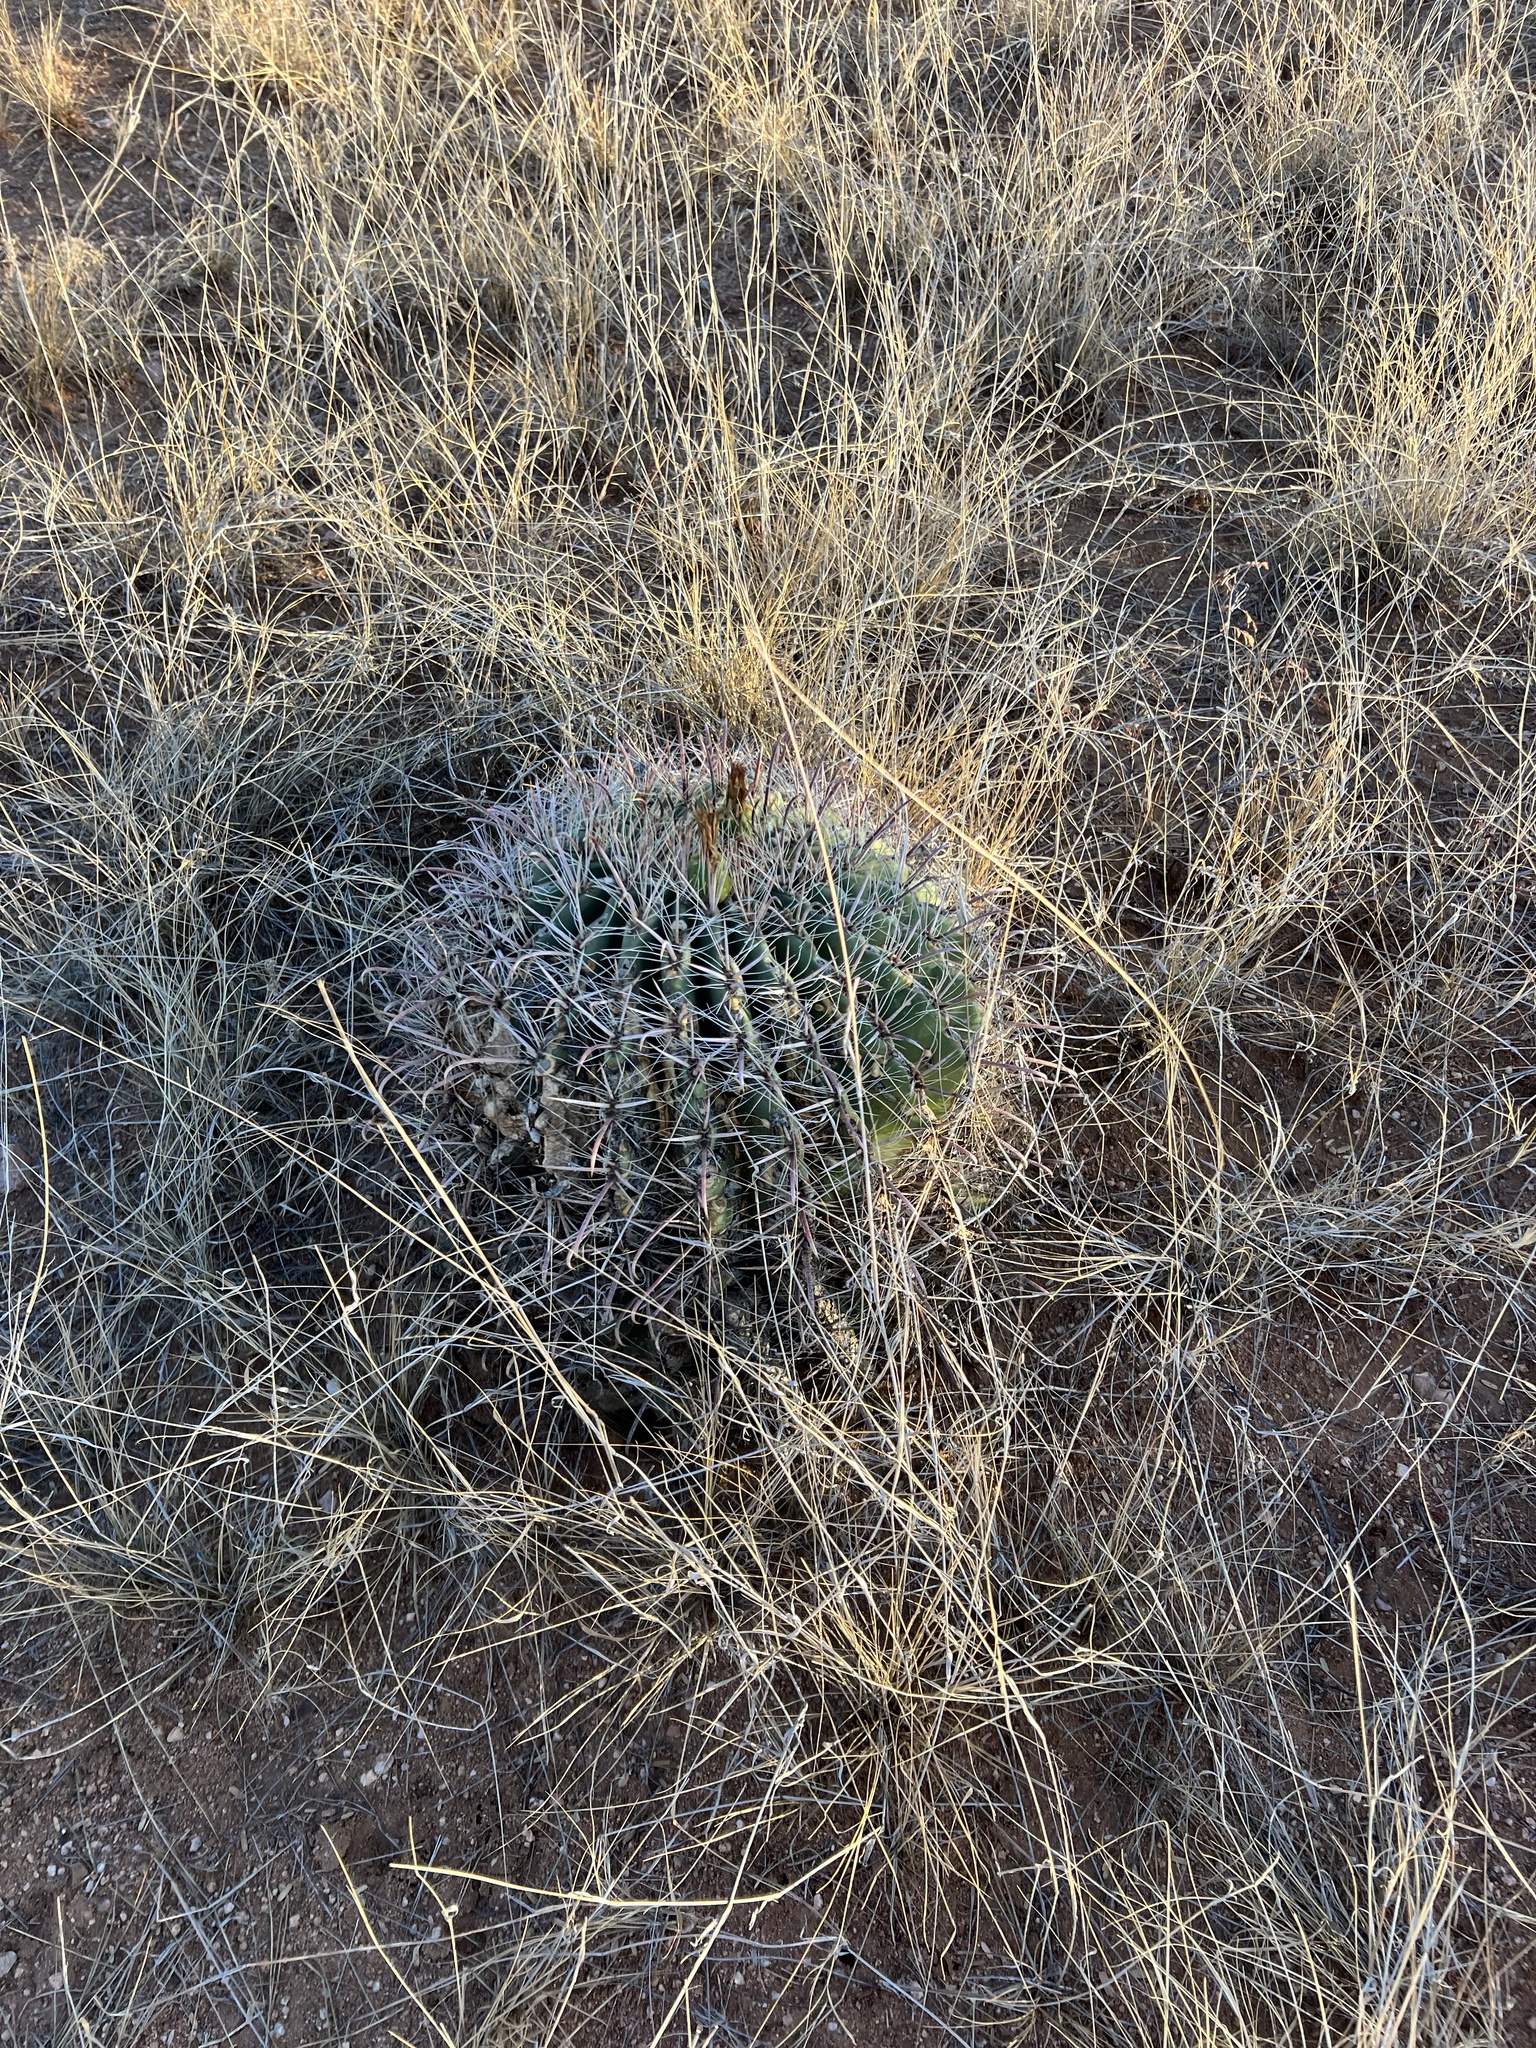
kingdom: Plantae
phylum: Tracheophyta
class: Magnoliopsida
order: Caryophyllales
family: Cactaceae
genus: Ferocactus
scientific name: Ferocactus wislizeni
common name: Candy barrel cactus
